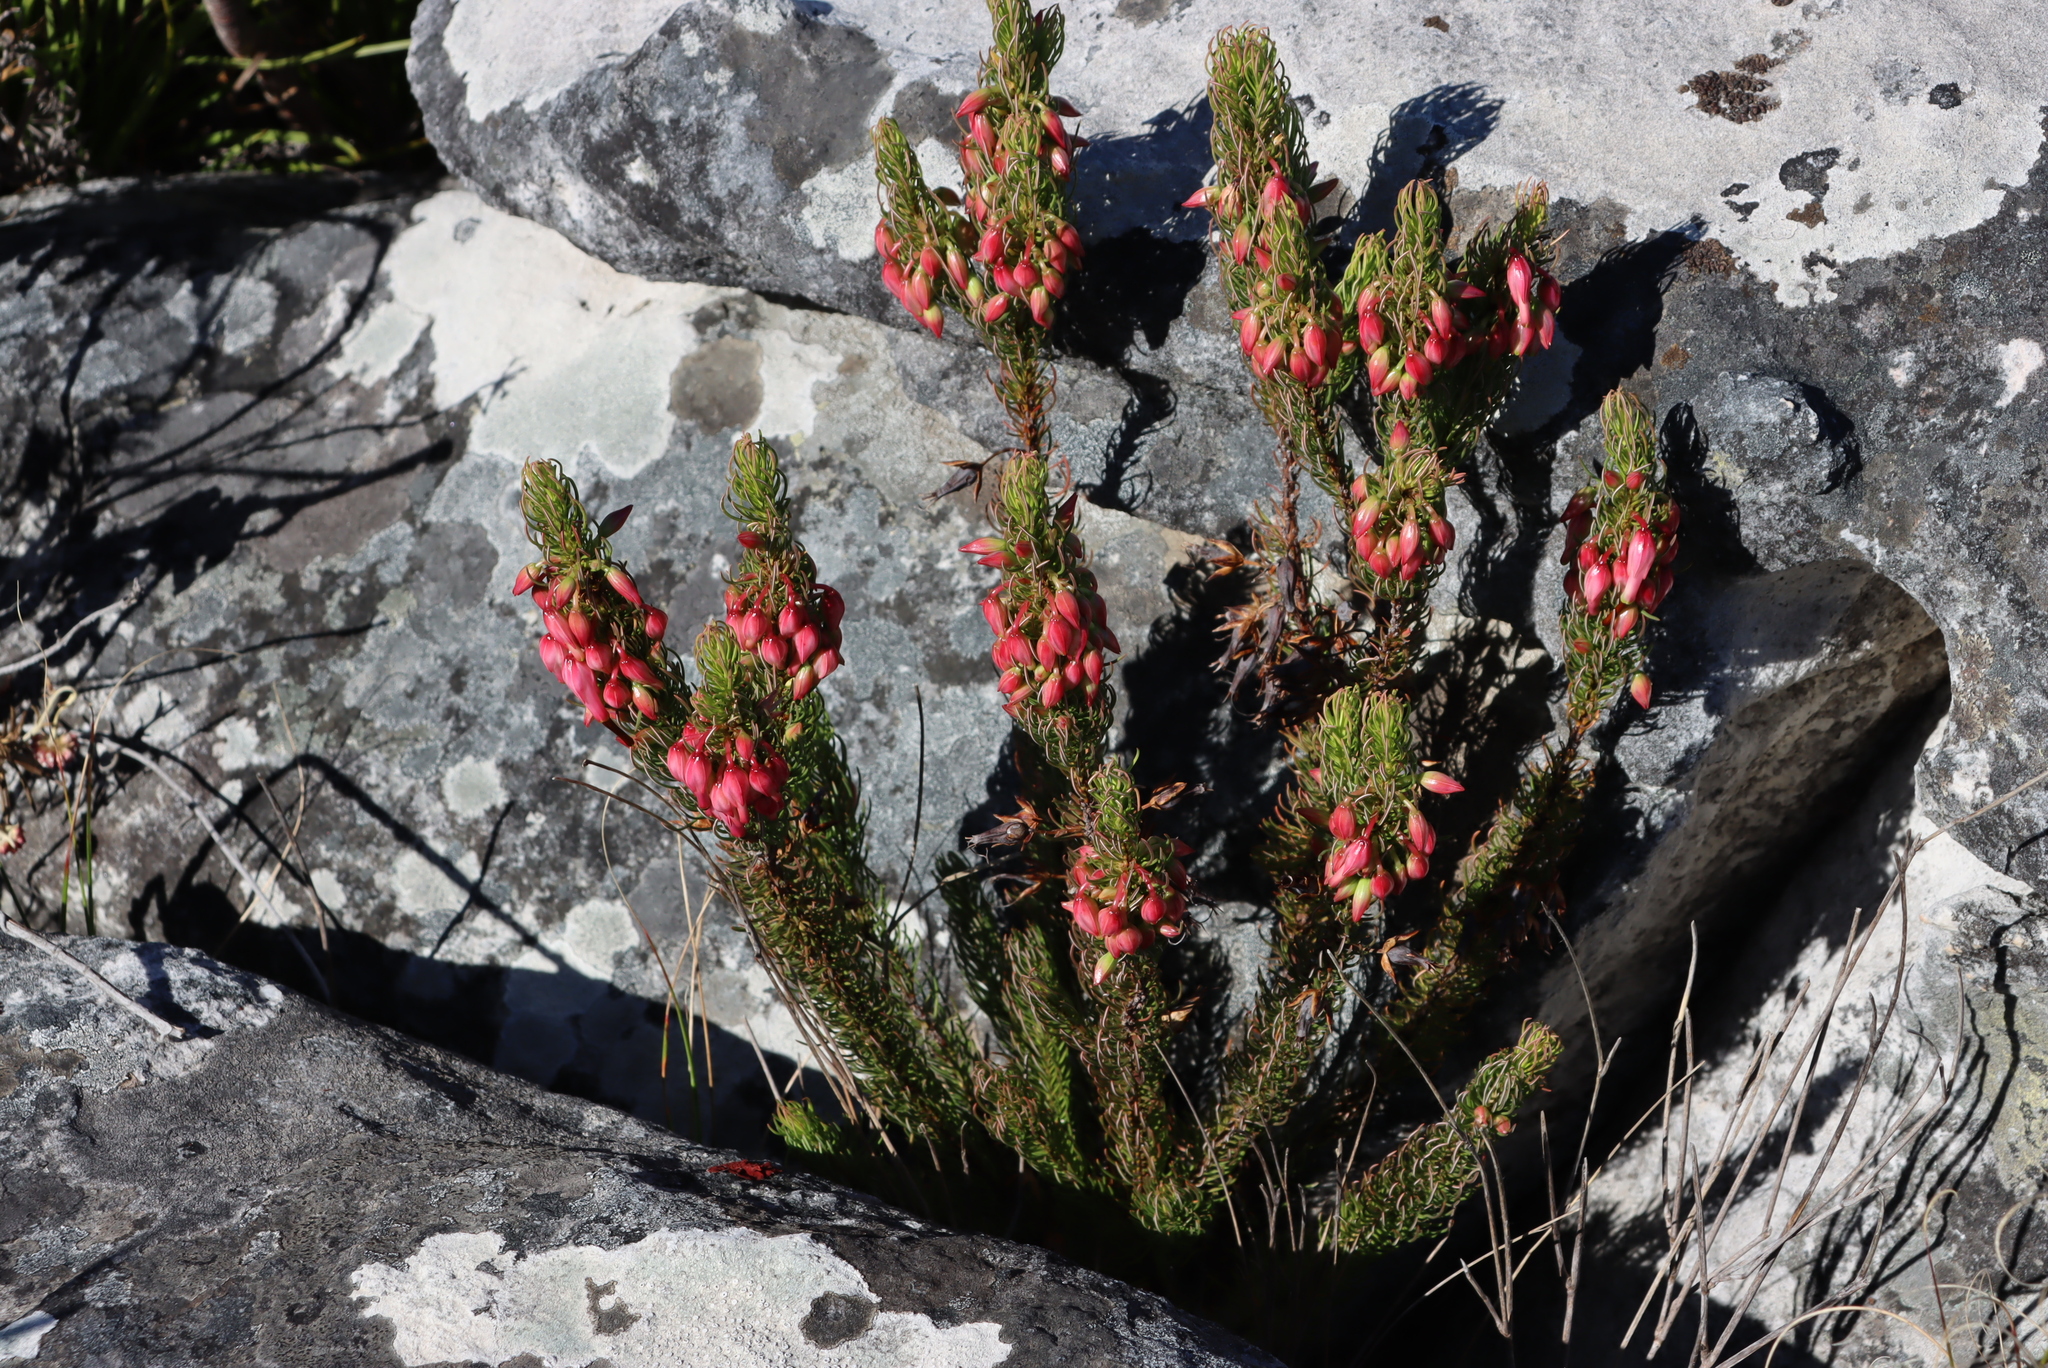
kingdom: Plantae
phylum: Tracheophyta
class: Magnoliopsida
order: Ericales
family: Ericaceae
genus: Erica
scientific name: Erica plukenetii
